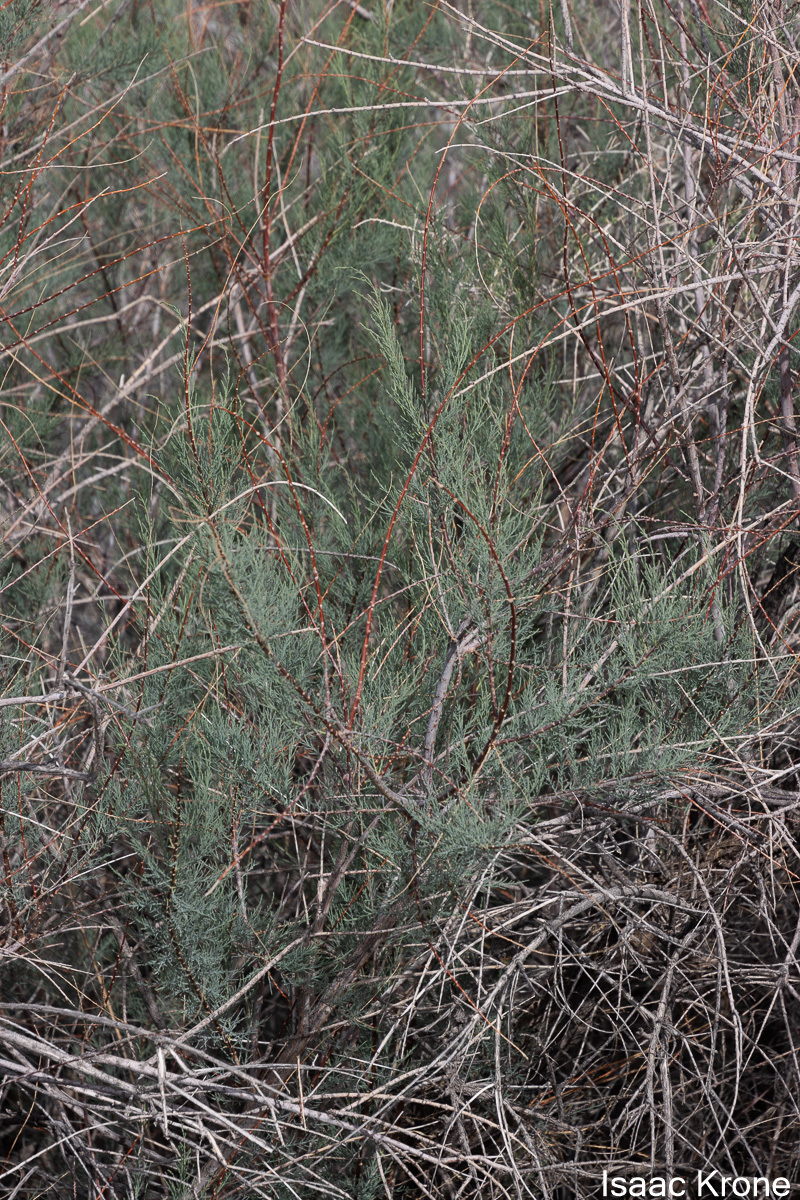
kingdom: Plantae
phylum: Tracheophyta
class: Magnoliopsida
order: Caryophyllales
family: Tamaricaceae
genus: Tamarix
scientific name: Tamarix
